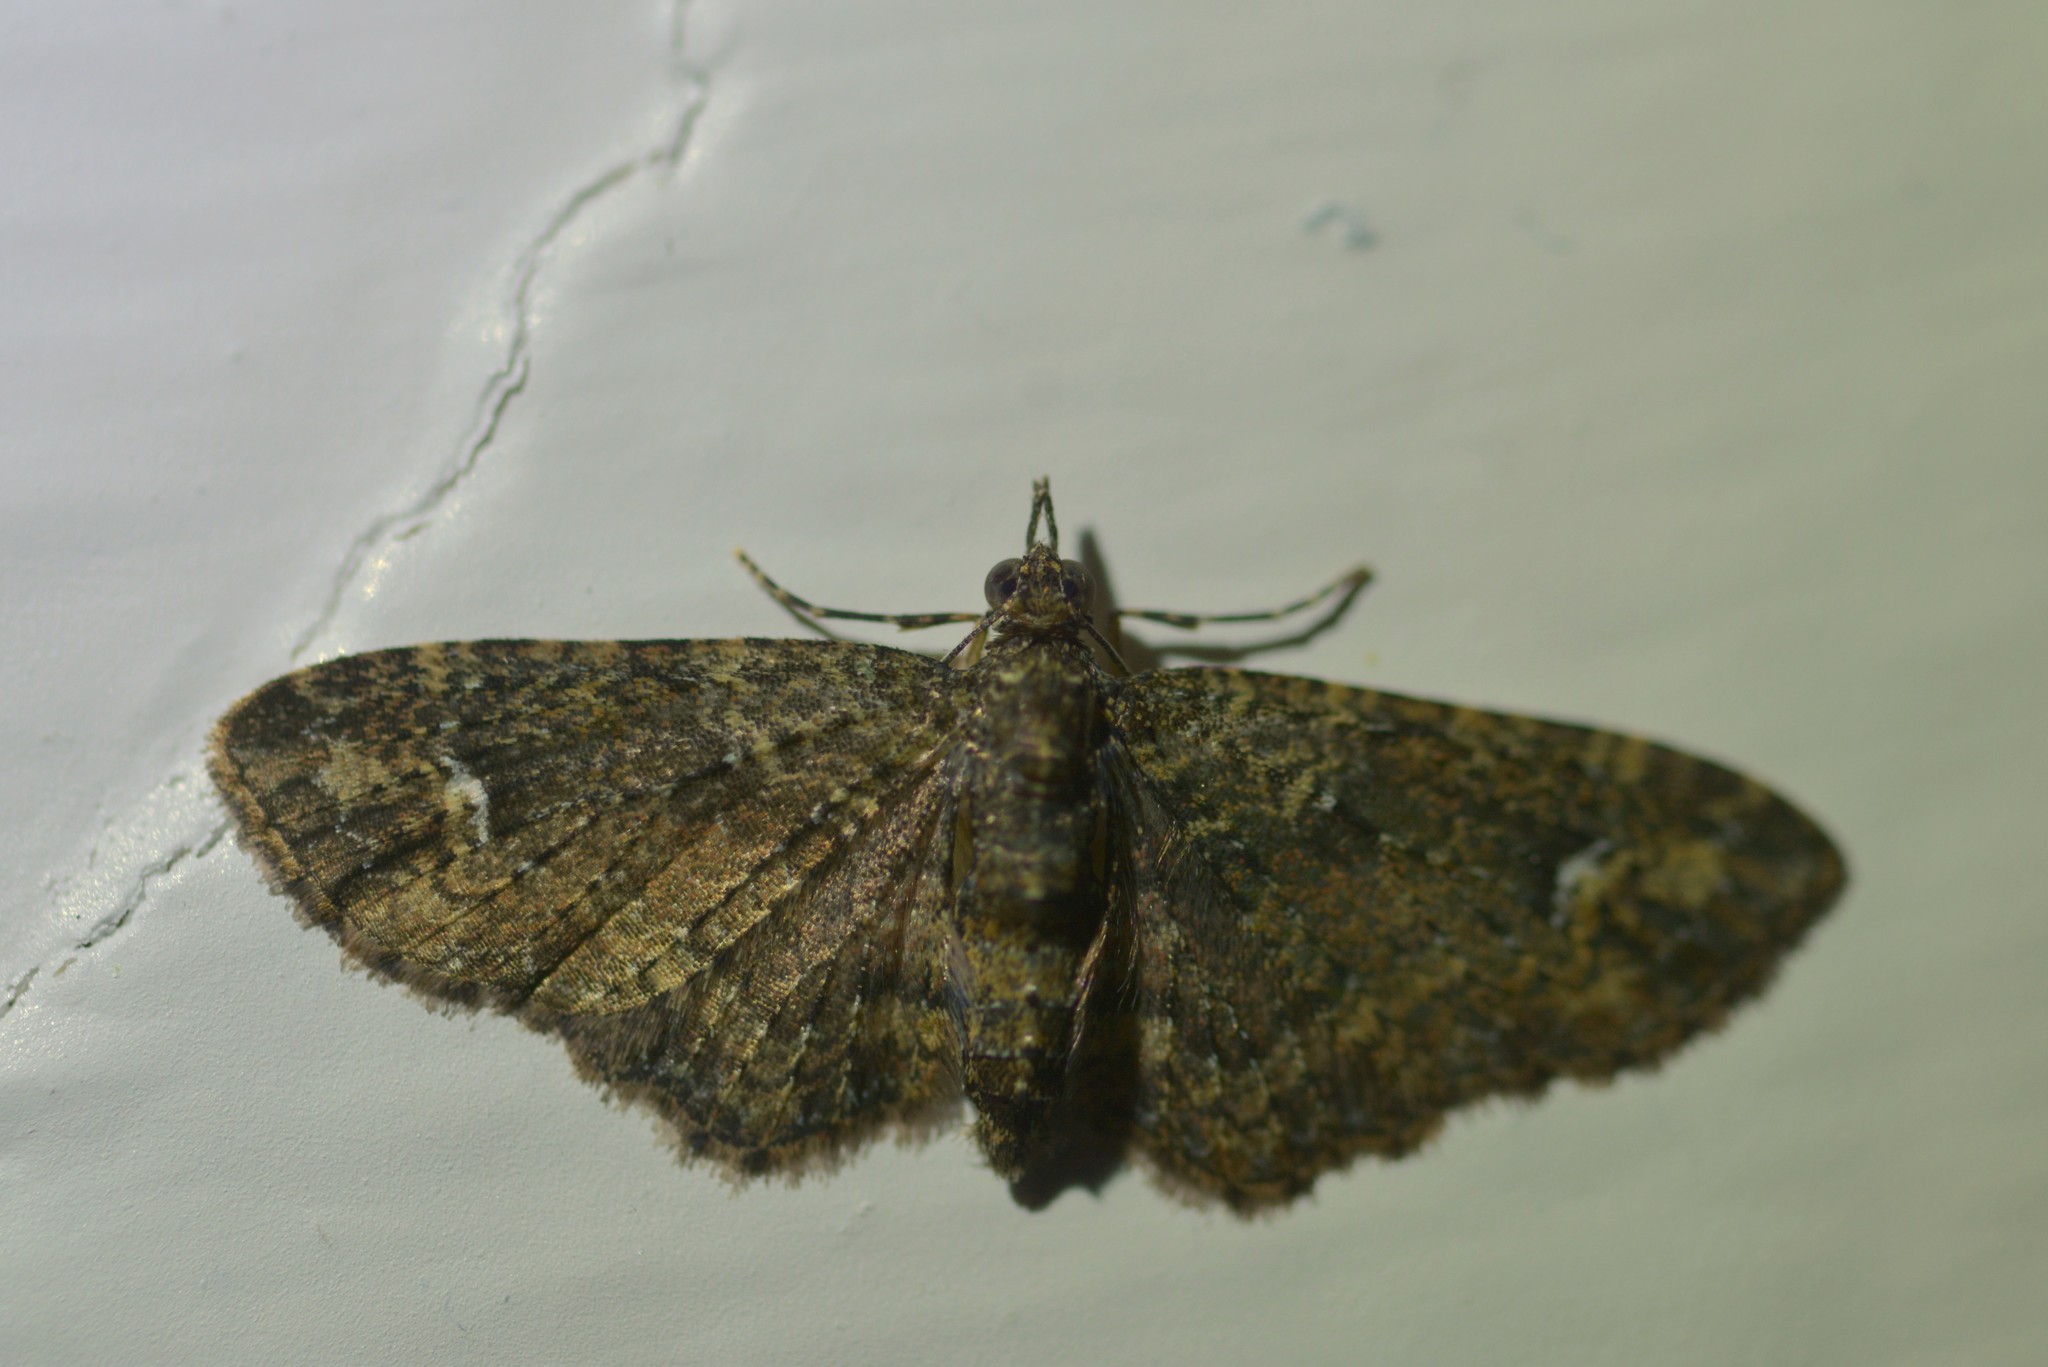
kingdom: Animalia
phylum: Arthropoda
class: Insecta
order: Lepidoptera
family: Geometridae
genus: Pasiphilodes
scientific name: Pasiphilodes testulata
